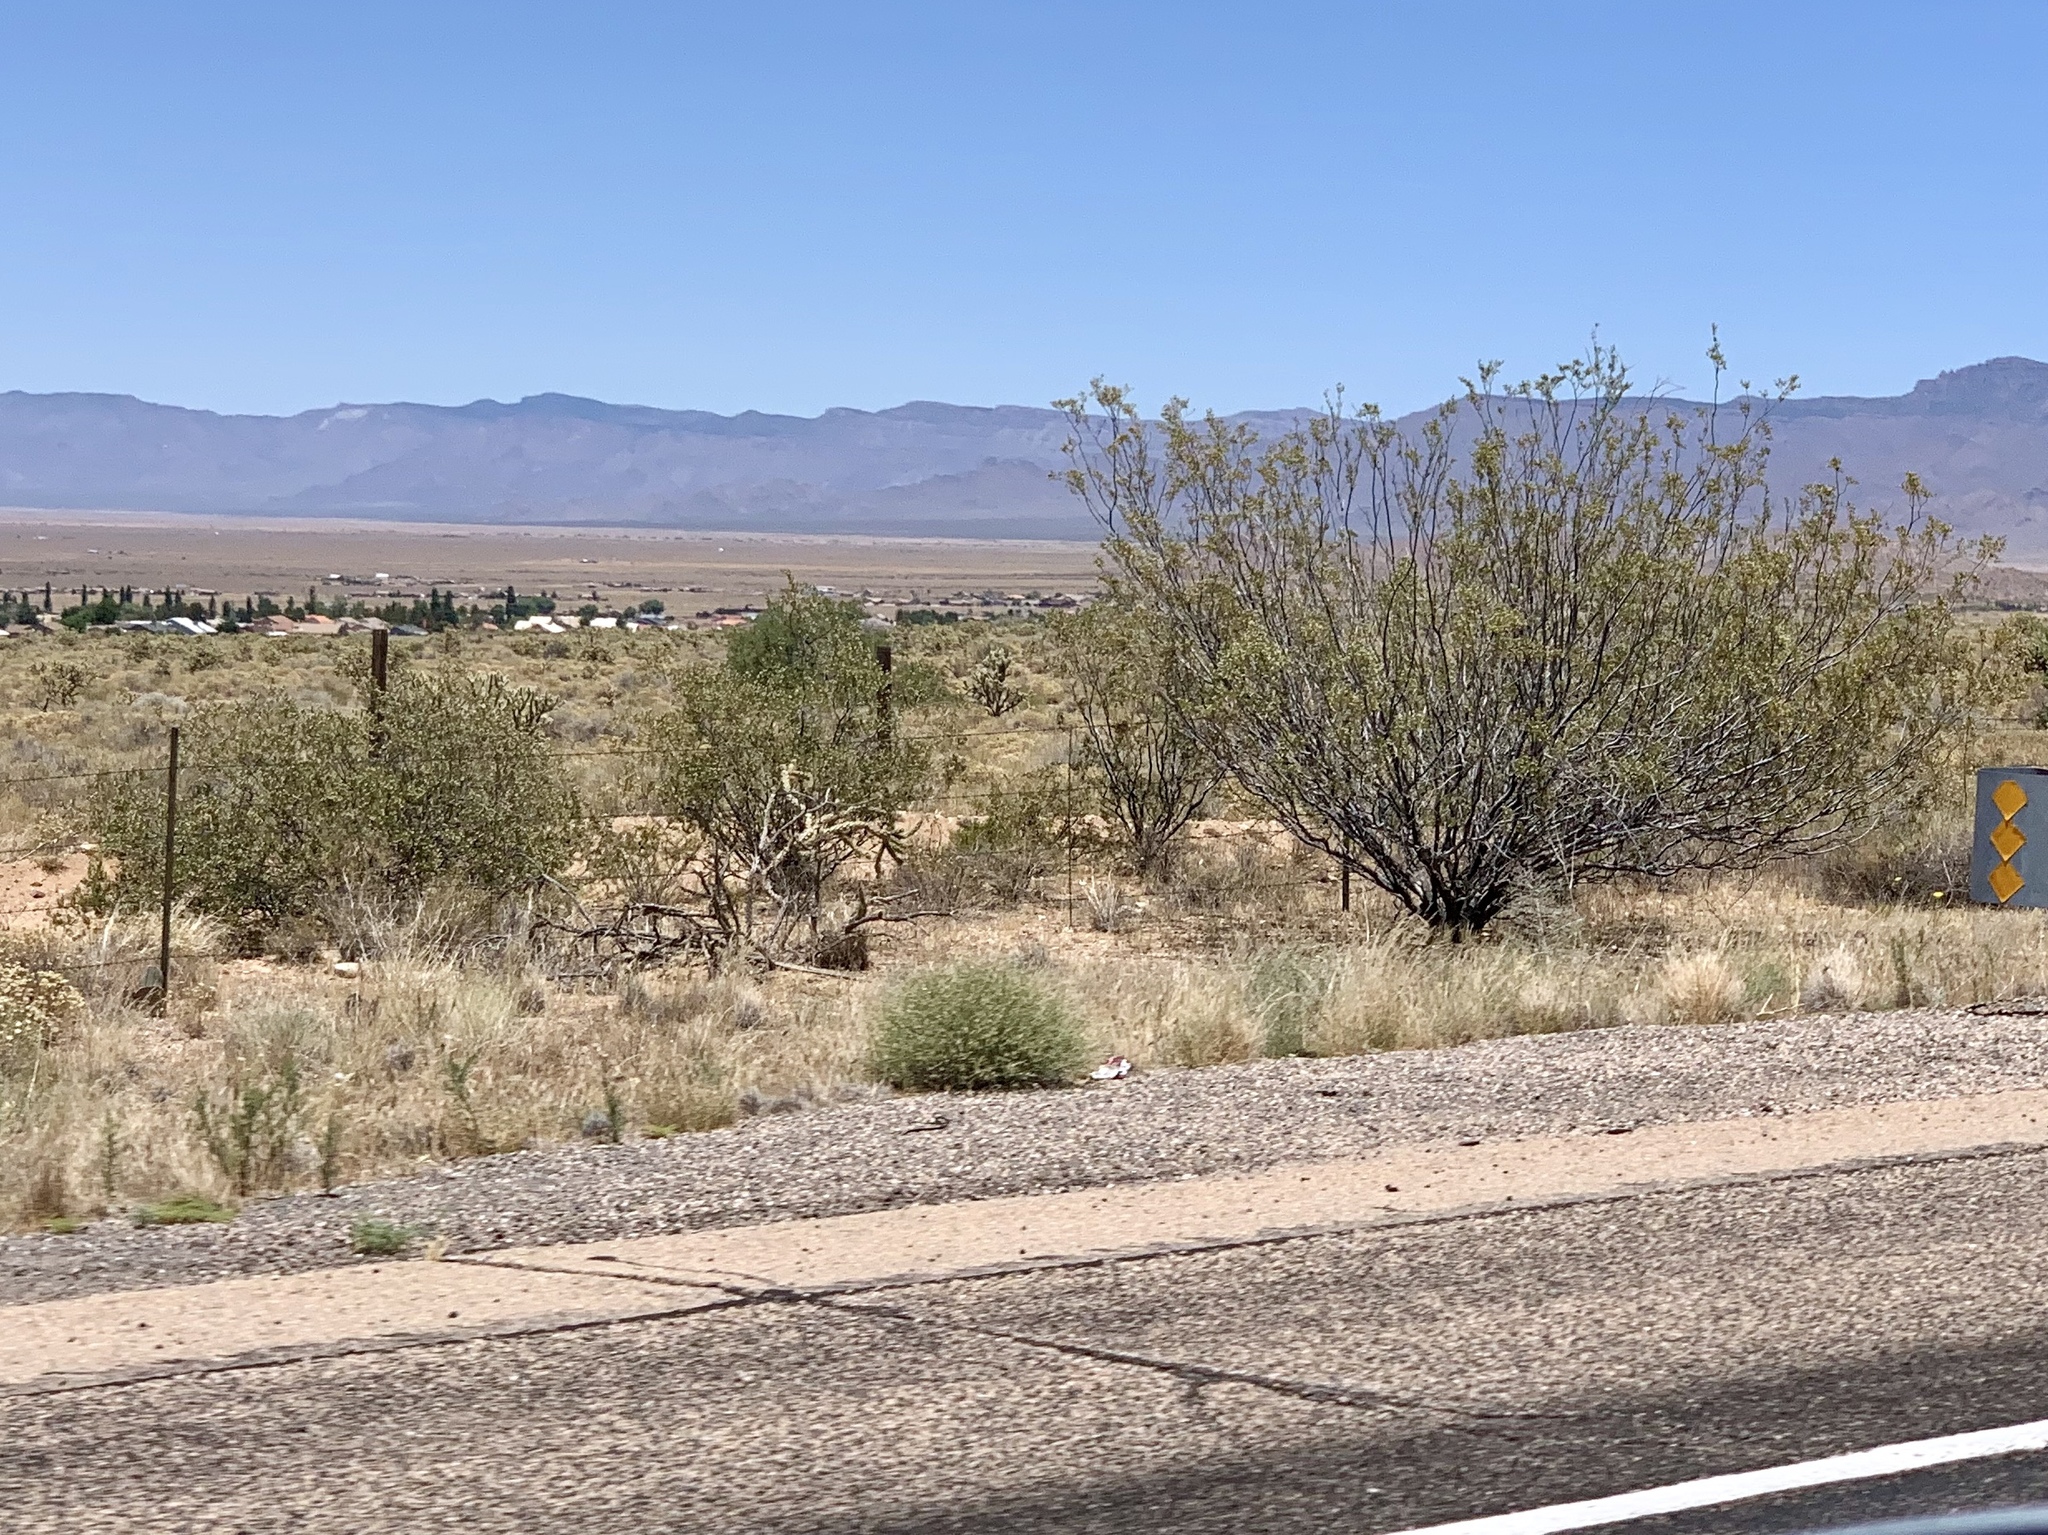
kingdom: Plantae
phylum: Tracheophyta
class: Magnoliopsida
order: Zygophyllales
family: Zygophyllaceae
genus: Larrea
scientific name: Larrea tridentata
